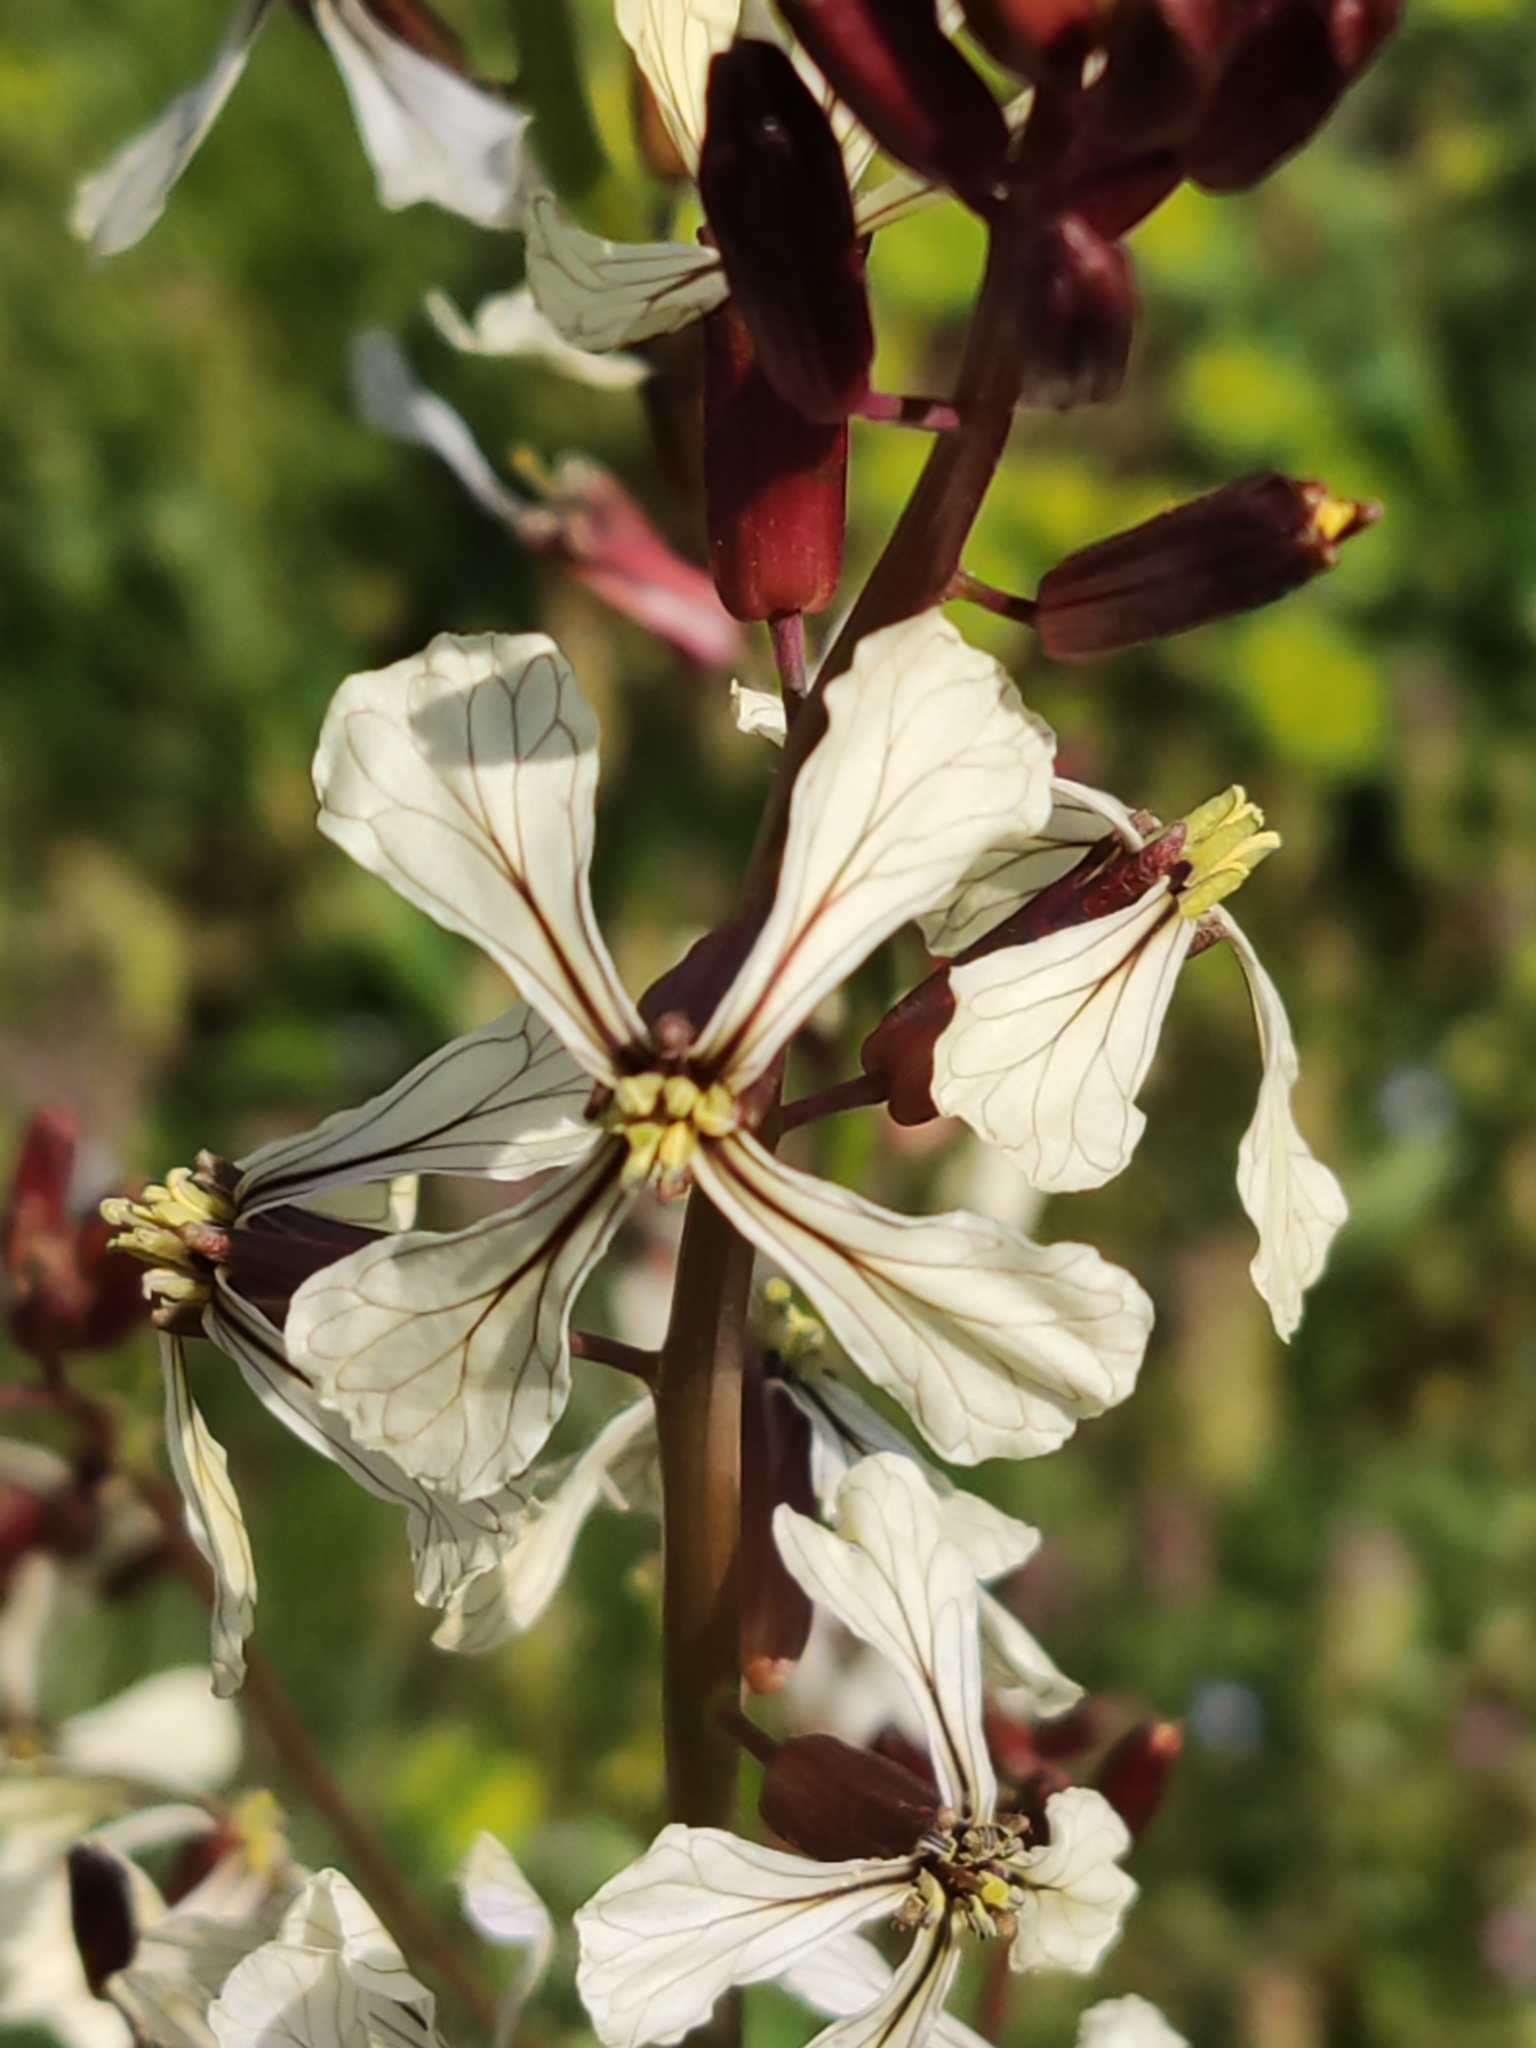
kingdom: Plantae
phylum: Tracheophyta
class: Magnoliopsida
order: Brassicales
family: Brassicaceae
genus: Eruca
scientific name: Eruca vesicaria
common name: Garden rocket
